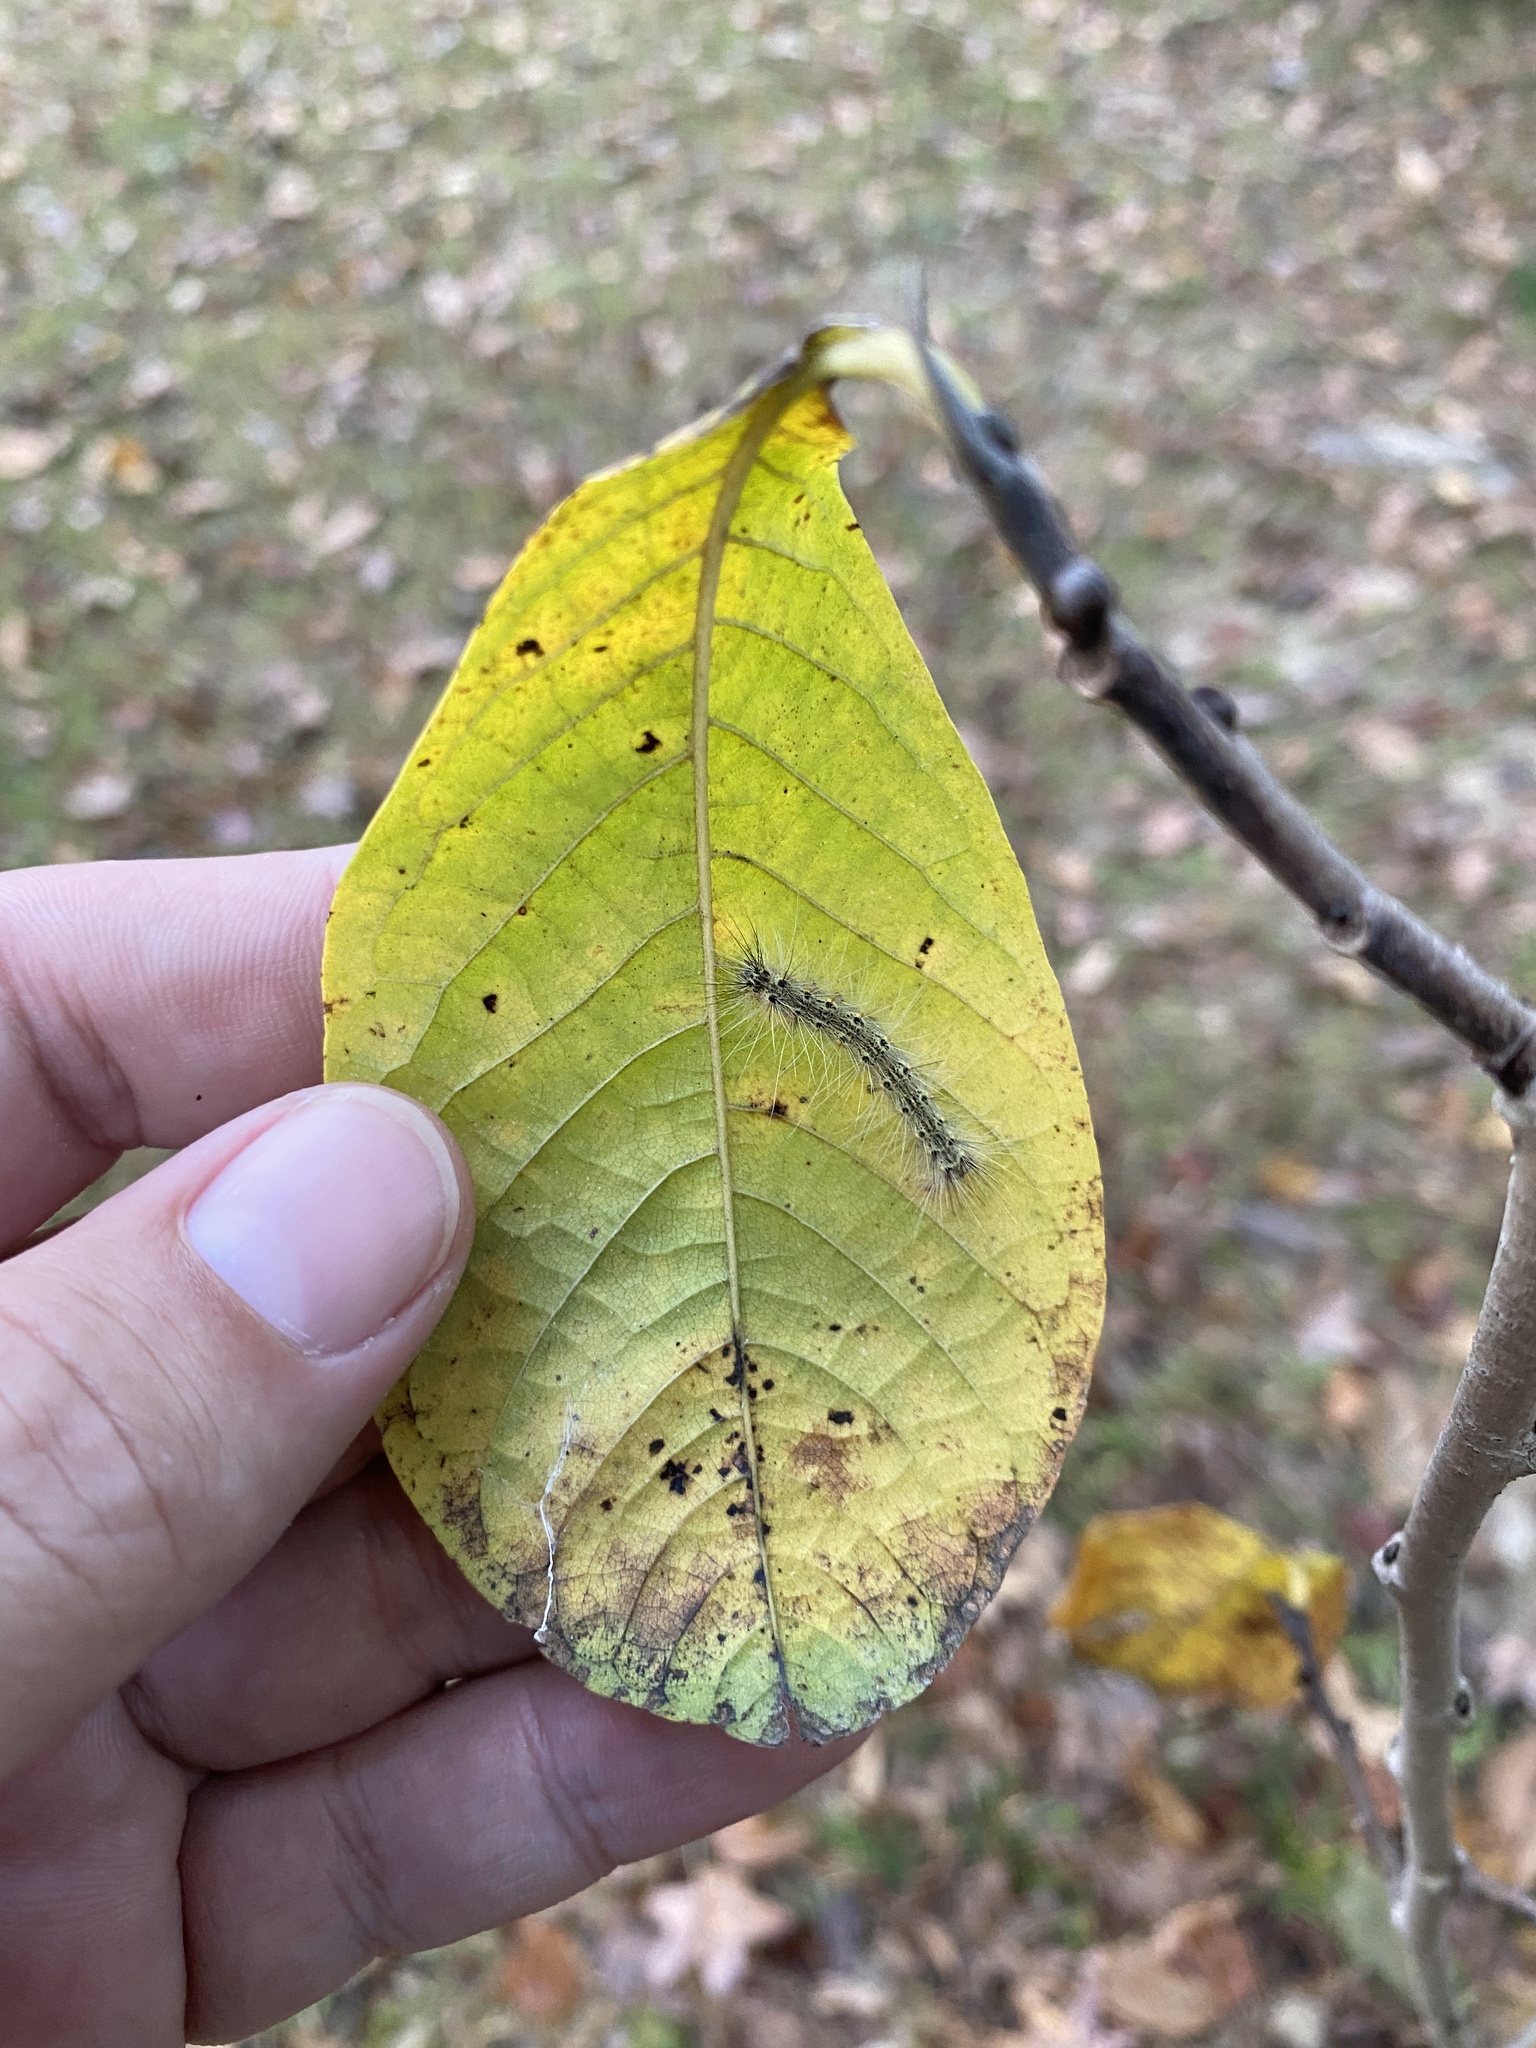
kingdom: Animalia
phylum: Arthropoda
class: Insecta
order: Lepidoptera
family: Erebidae
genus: Hyphantria
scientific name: Hyphantria cunea
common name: American white moth
